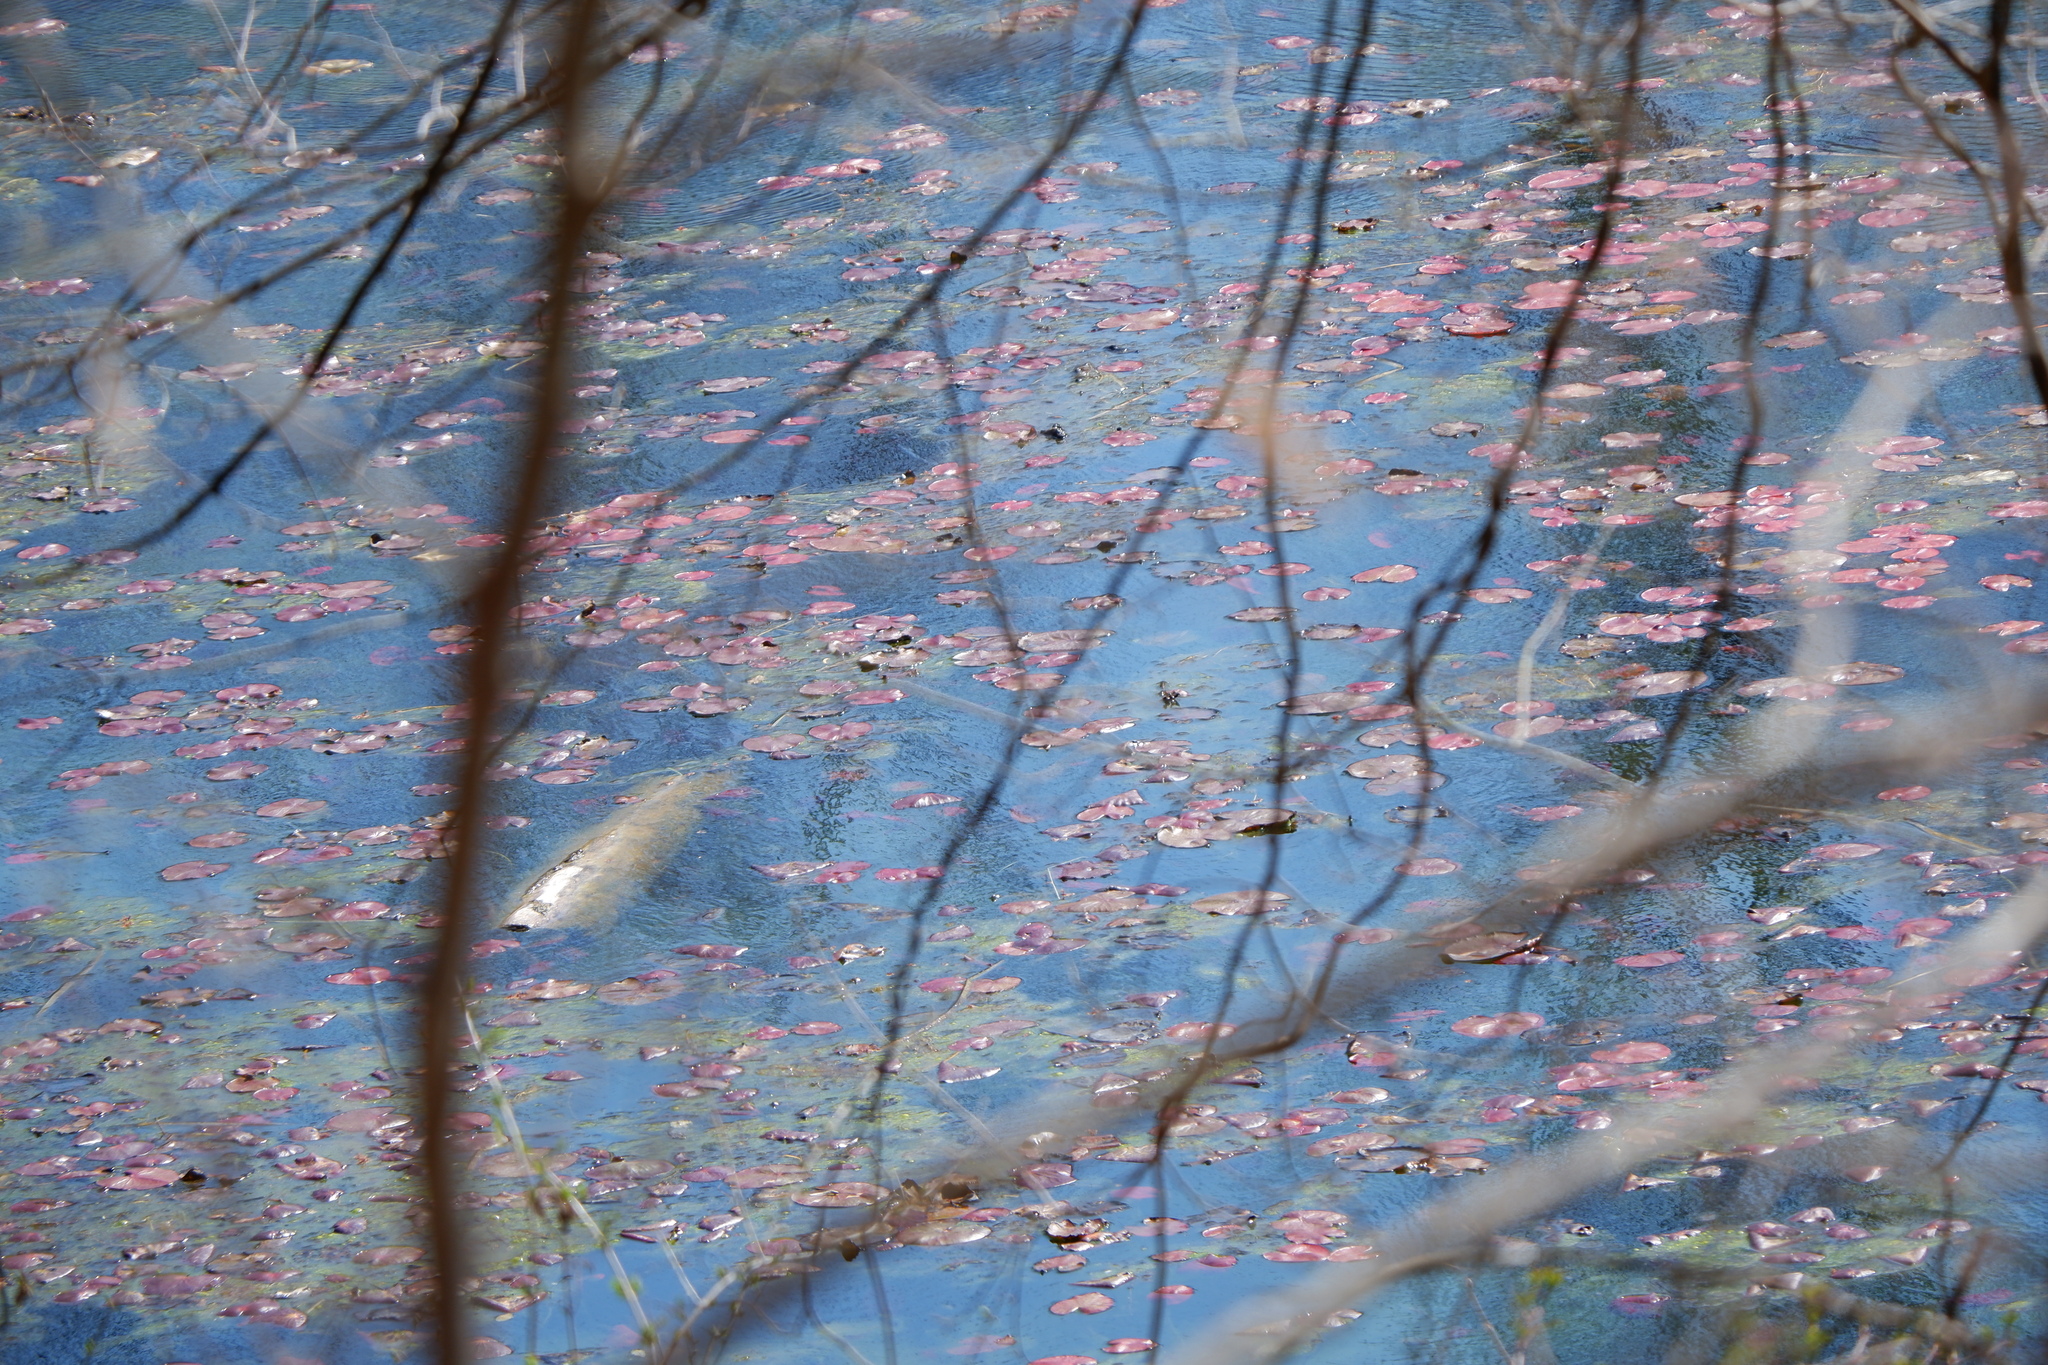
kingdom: Plantae
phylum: Tracheophyta
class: Magnoliopsida
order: Nymphaeales
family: Nymphaeaceae
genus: Nymphaea
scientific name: Nymphaea odorata
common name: Fragrant water-lily
